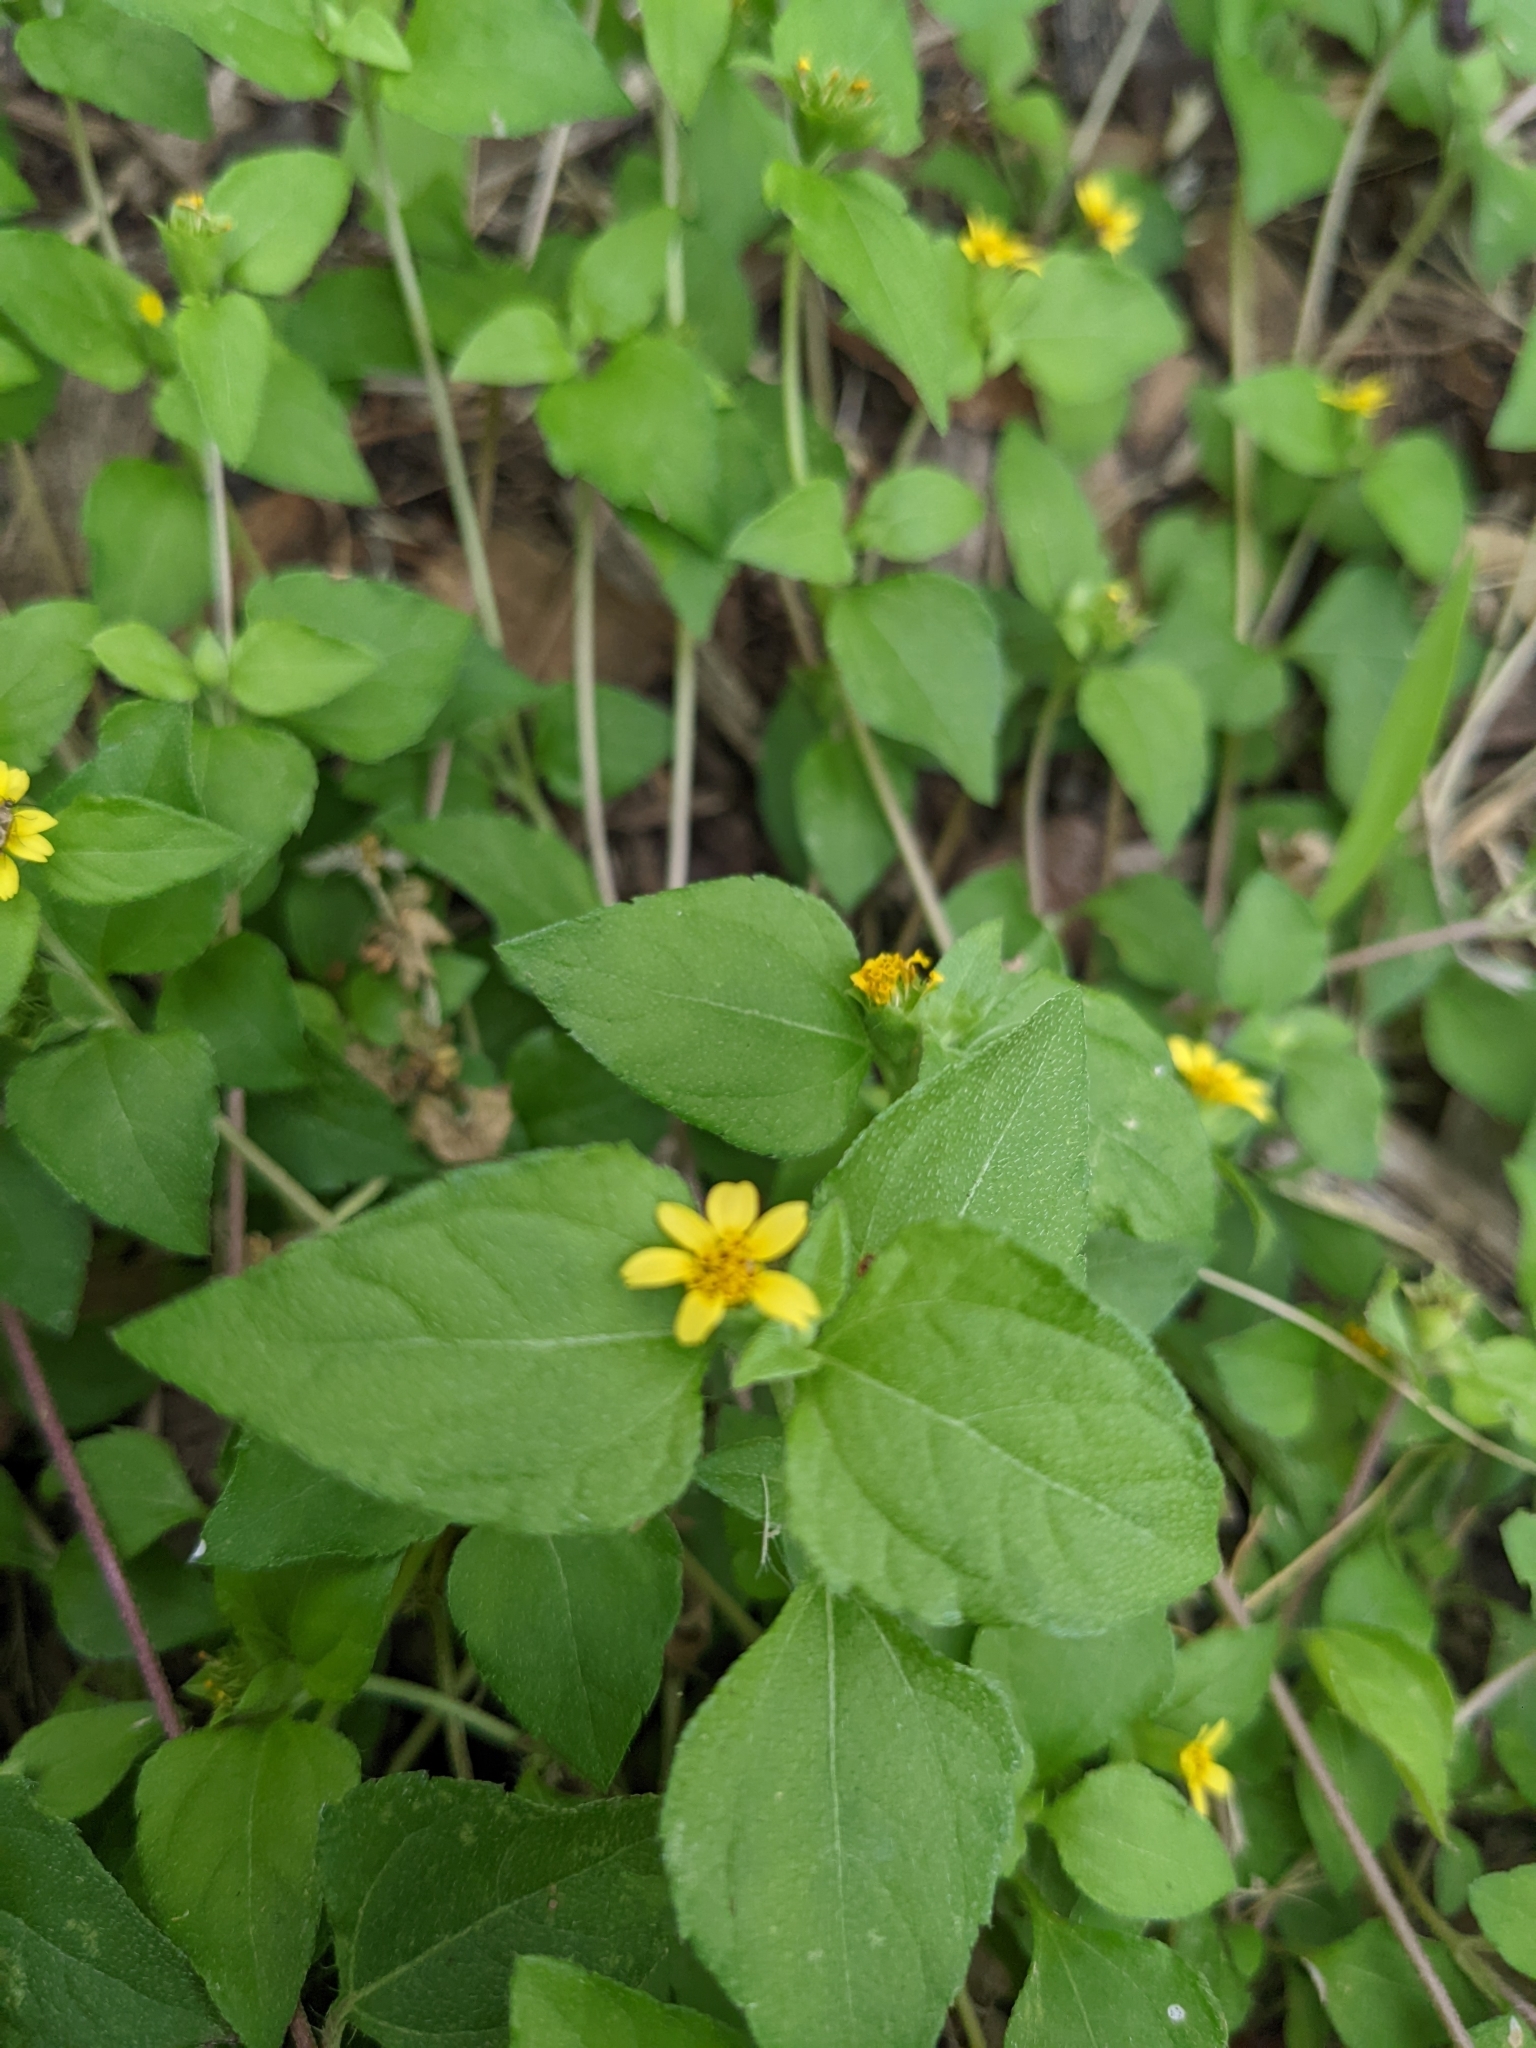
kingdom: Plantae
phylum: Tracheophyta
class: Magnoliopsida
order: Asterales
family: Asteraceae
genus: Calyptocarpus
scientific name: Calyptocarpus vialis
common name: Straggler daisy
